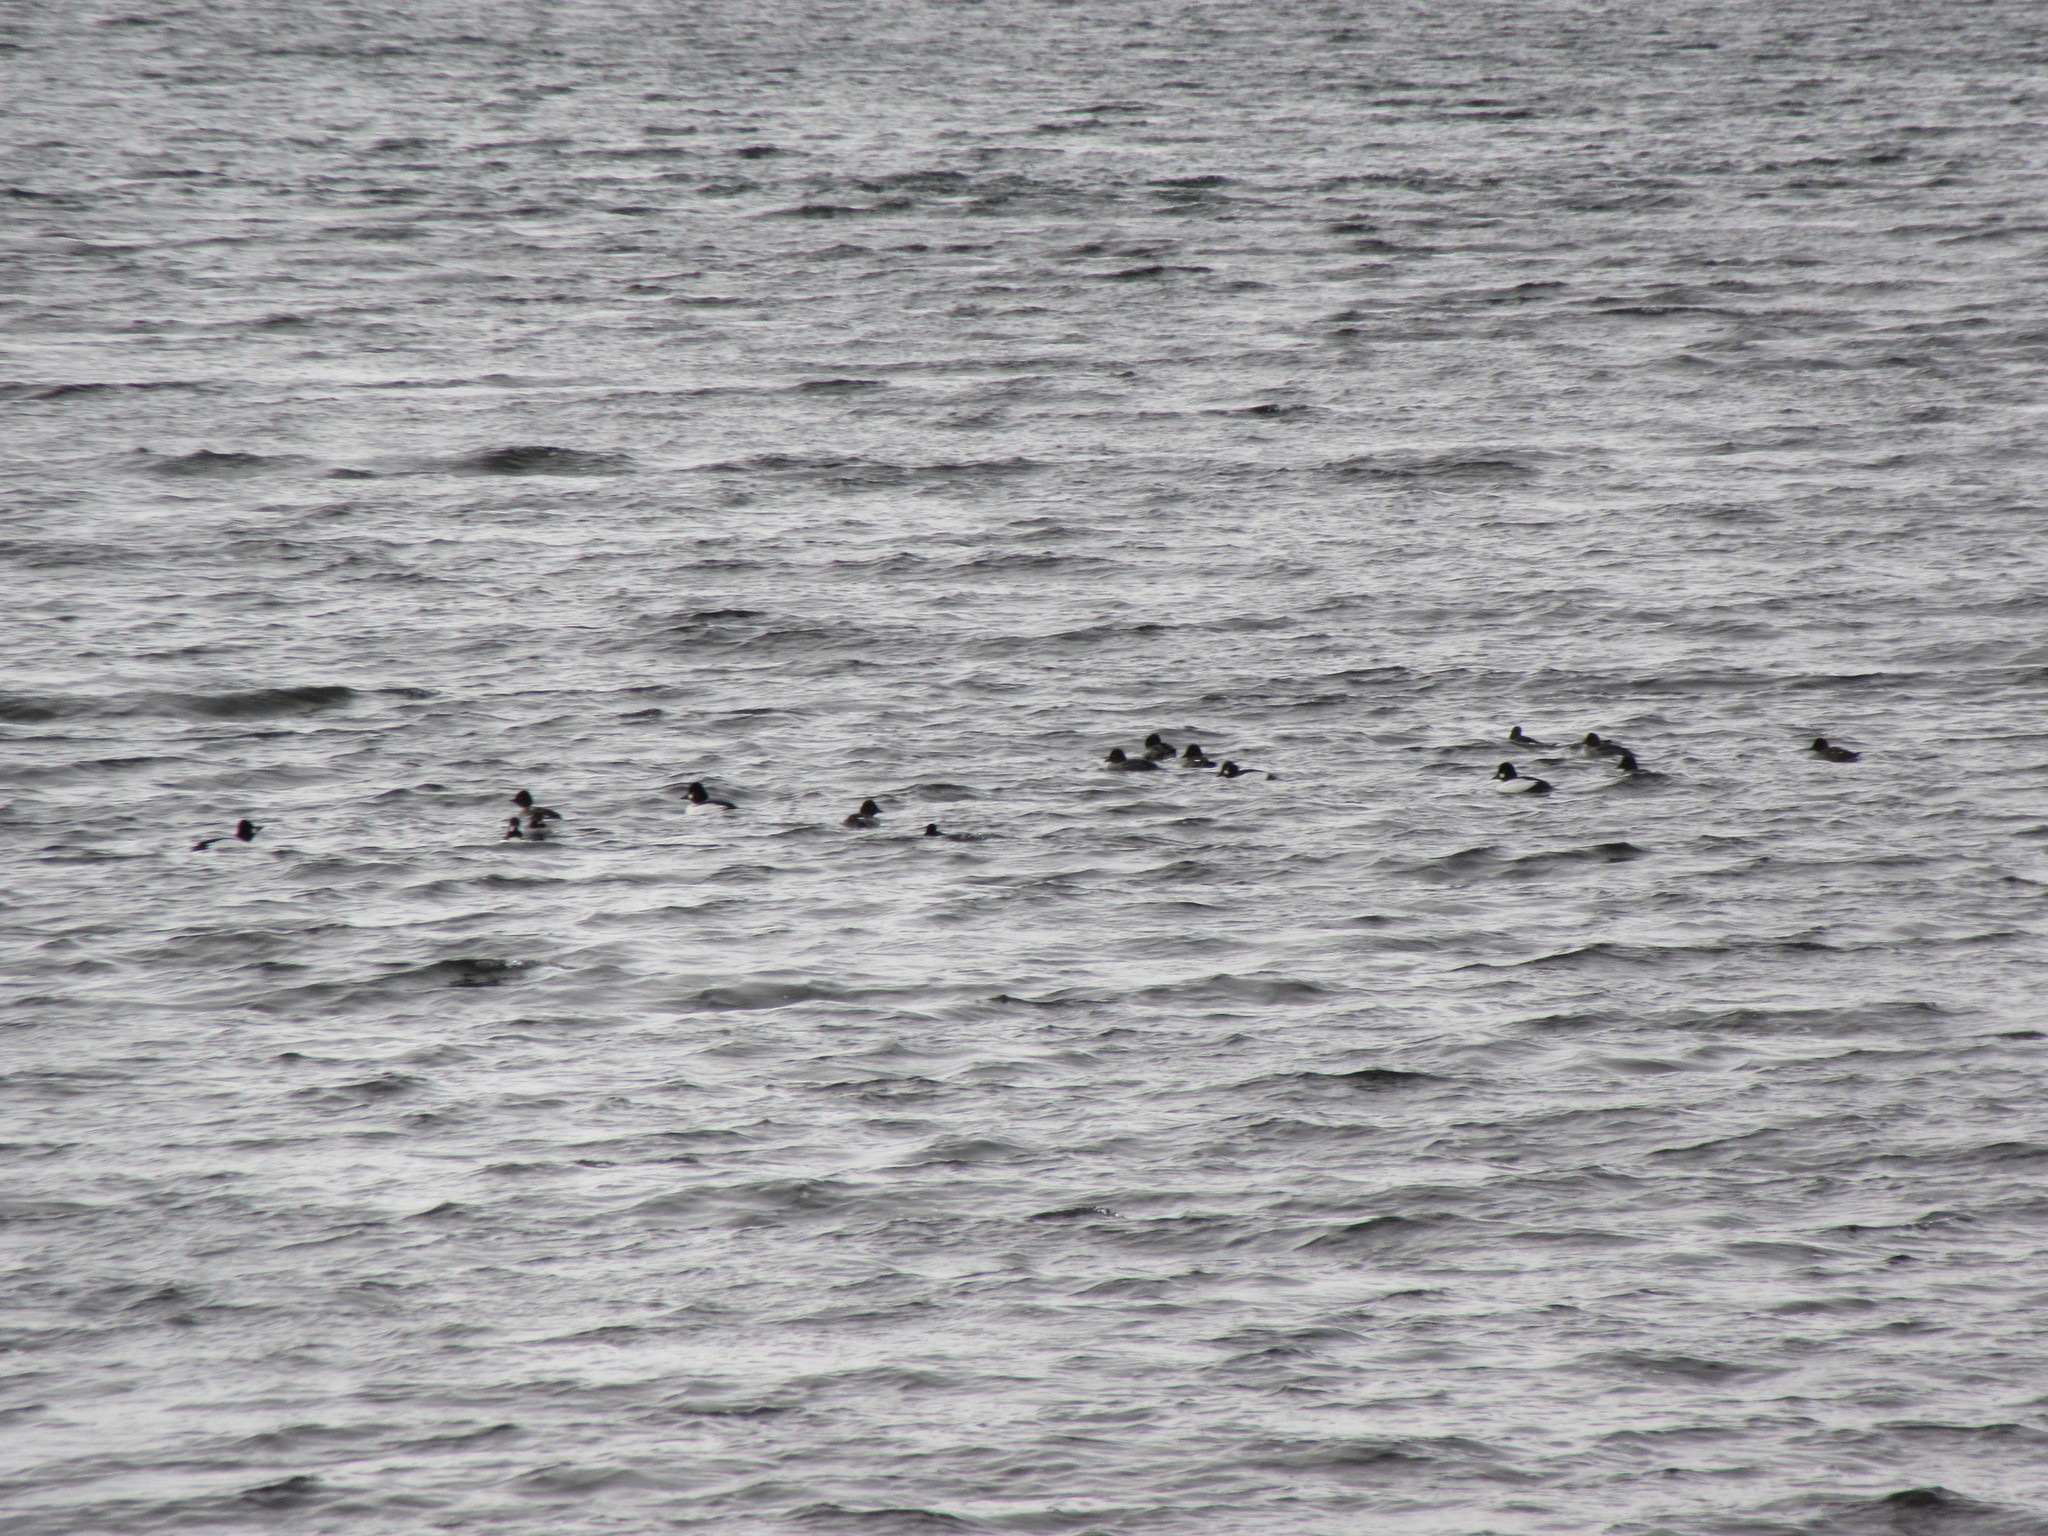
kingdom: Animalia
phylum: Chordata
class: Aves
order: Anseriformes
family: Anatidae
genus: Bucephala
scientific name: Bucephala clangula
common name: Common goldeneye
